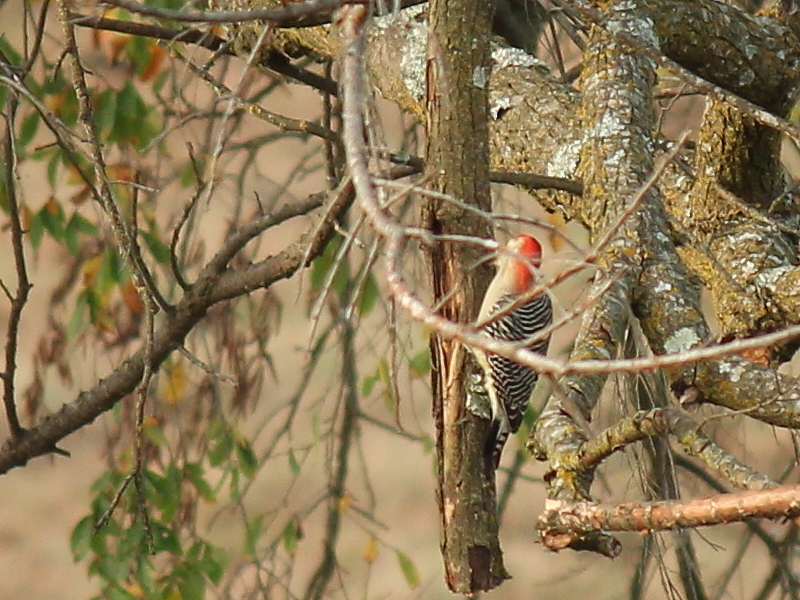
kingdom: Animalia
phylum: Chordata
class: Aves
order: Piciformes
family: Picidae
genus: Melanerpes
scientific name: Melanerpes carolinus
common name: Red-bellied woodpecker
